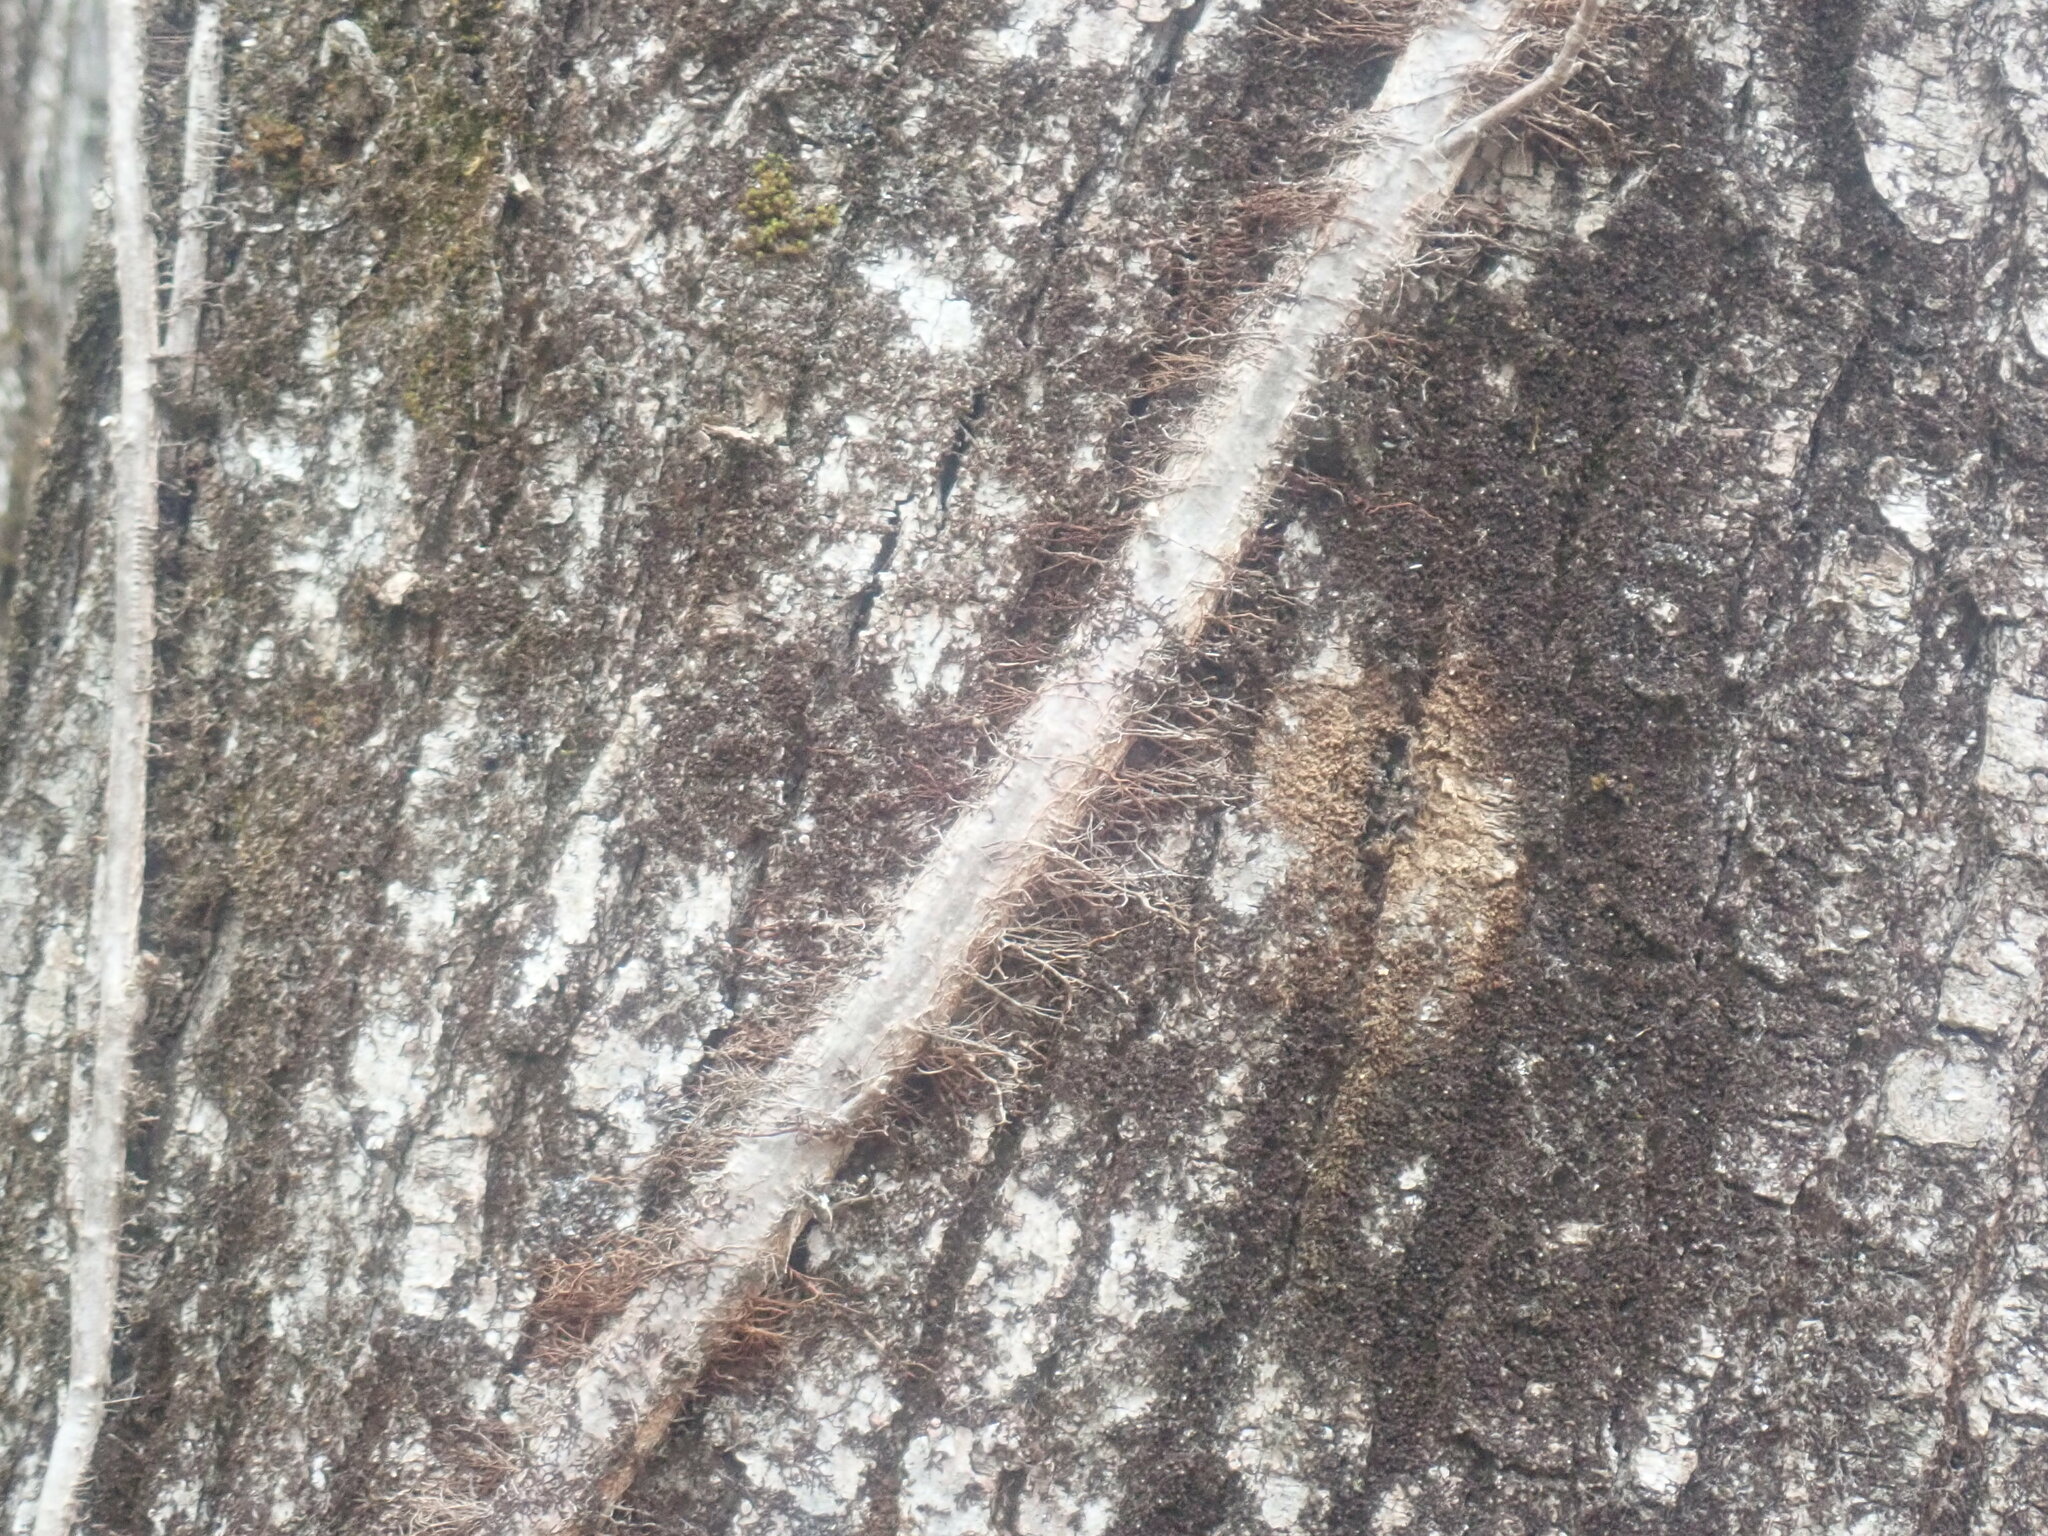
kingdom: Plantae
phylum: Tracheophyta
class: Magnoliopsida
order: Sapindales
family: Anacardiaceae
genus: Toxicodendron
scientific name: Toxicodendron radicans
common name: Poison ivy
